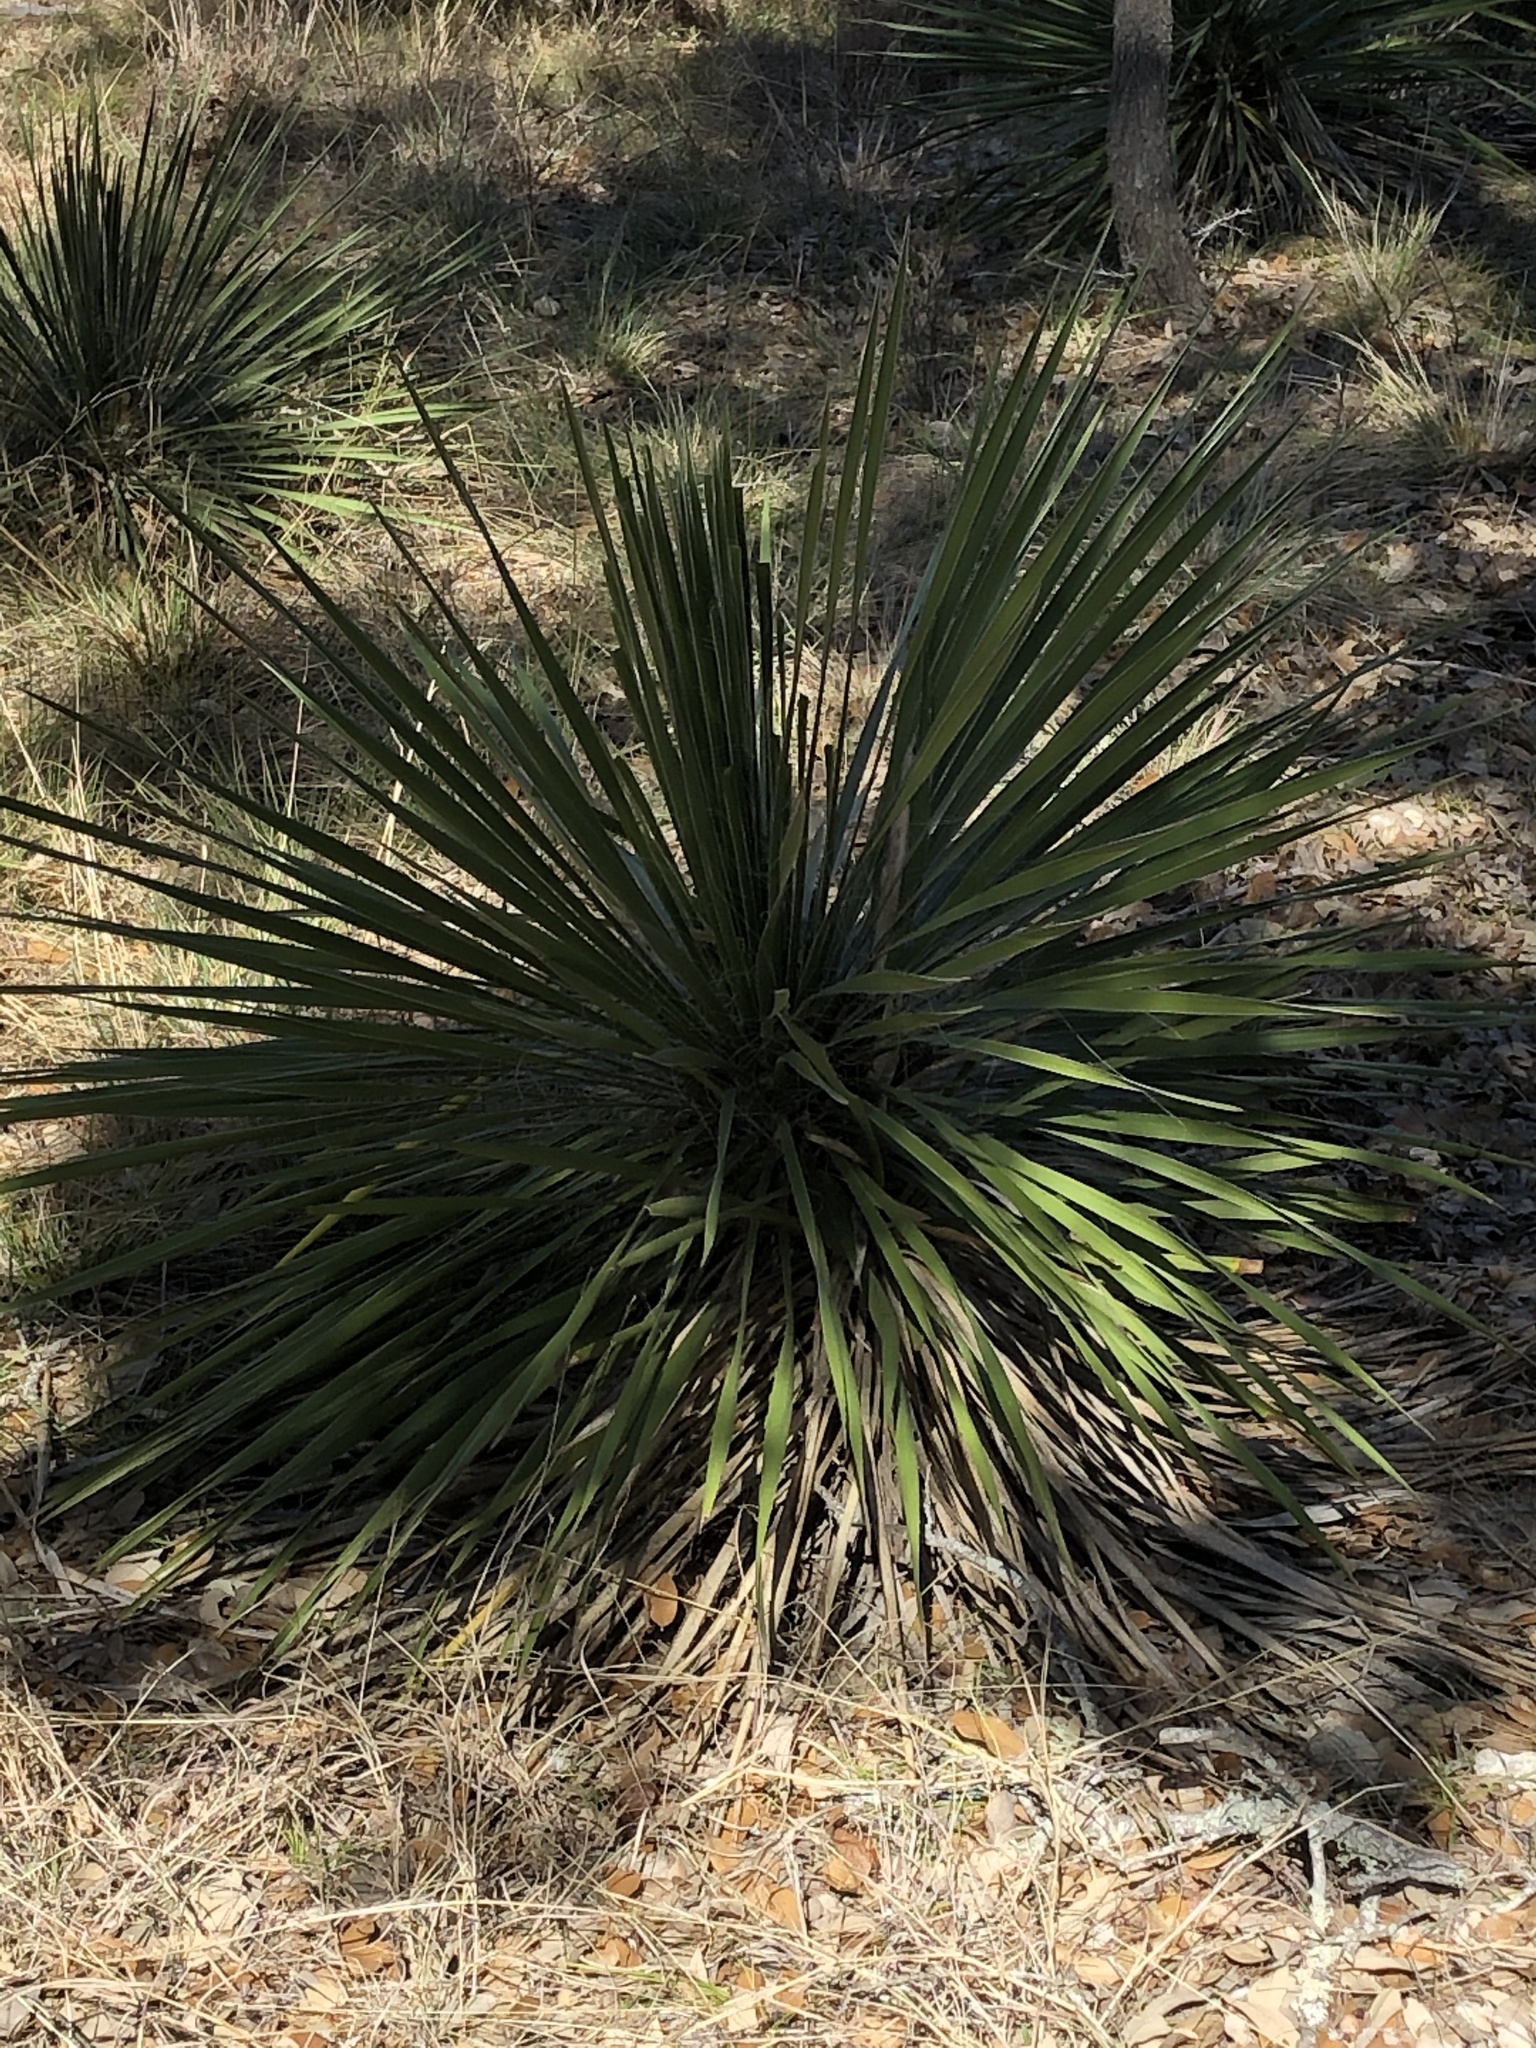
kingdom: Plantae
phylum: Tracheophyta
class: Liliopsida
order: Asparagales
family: Asparagaceae
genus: Yucca
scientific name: Yucca constricta
